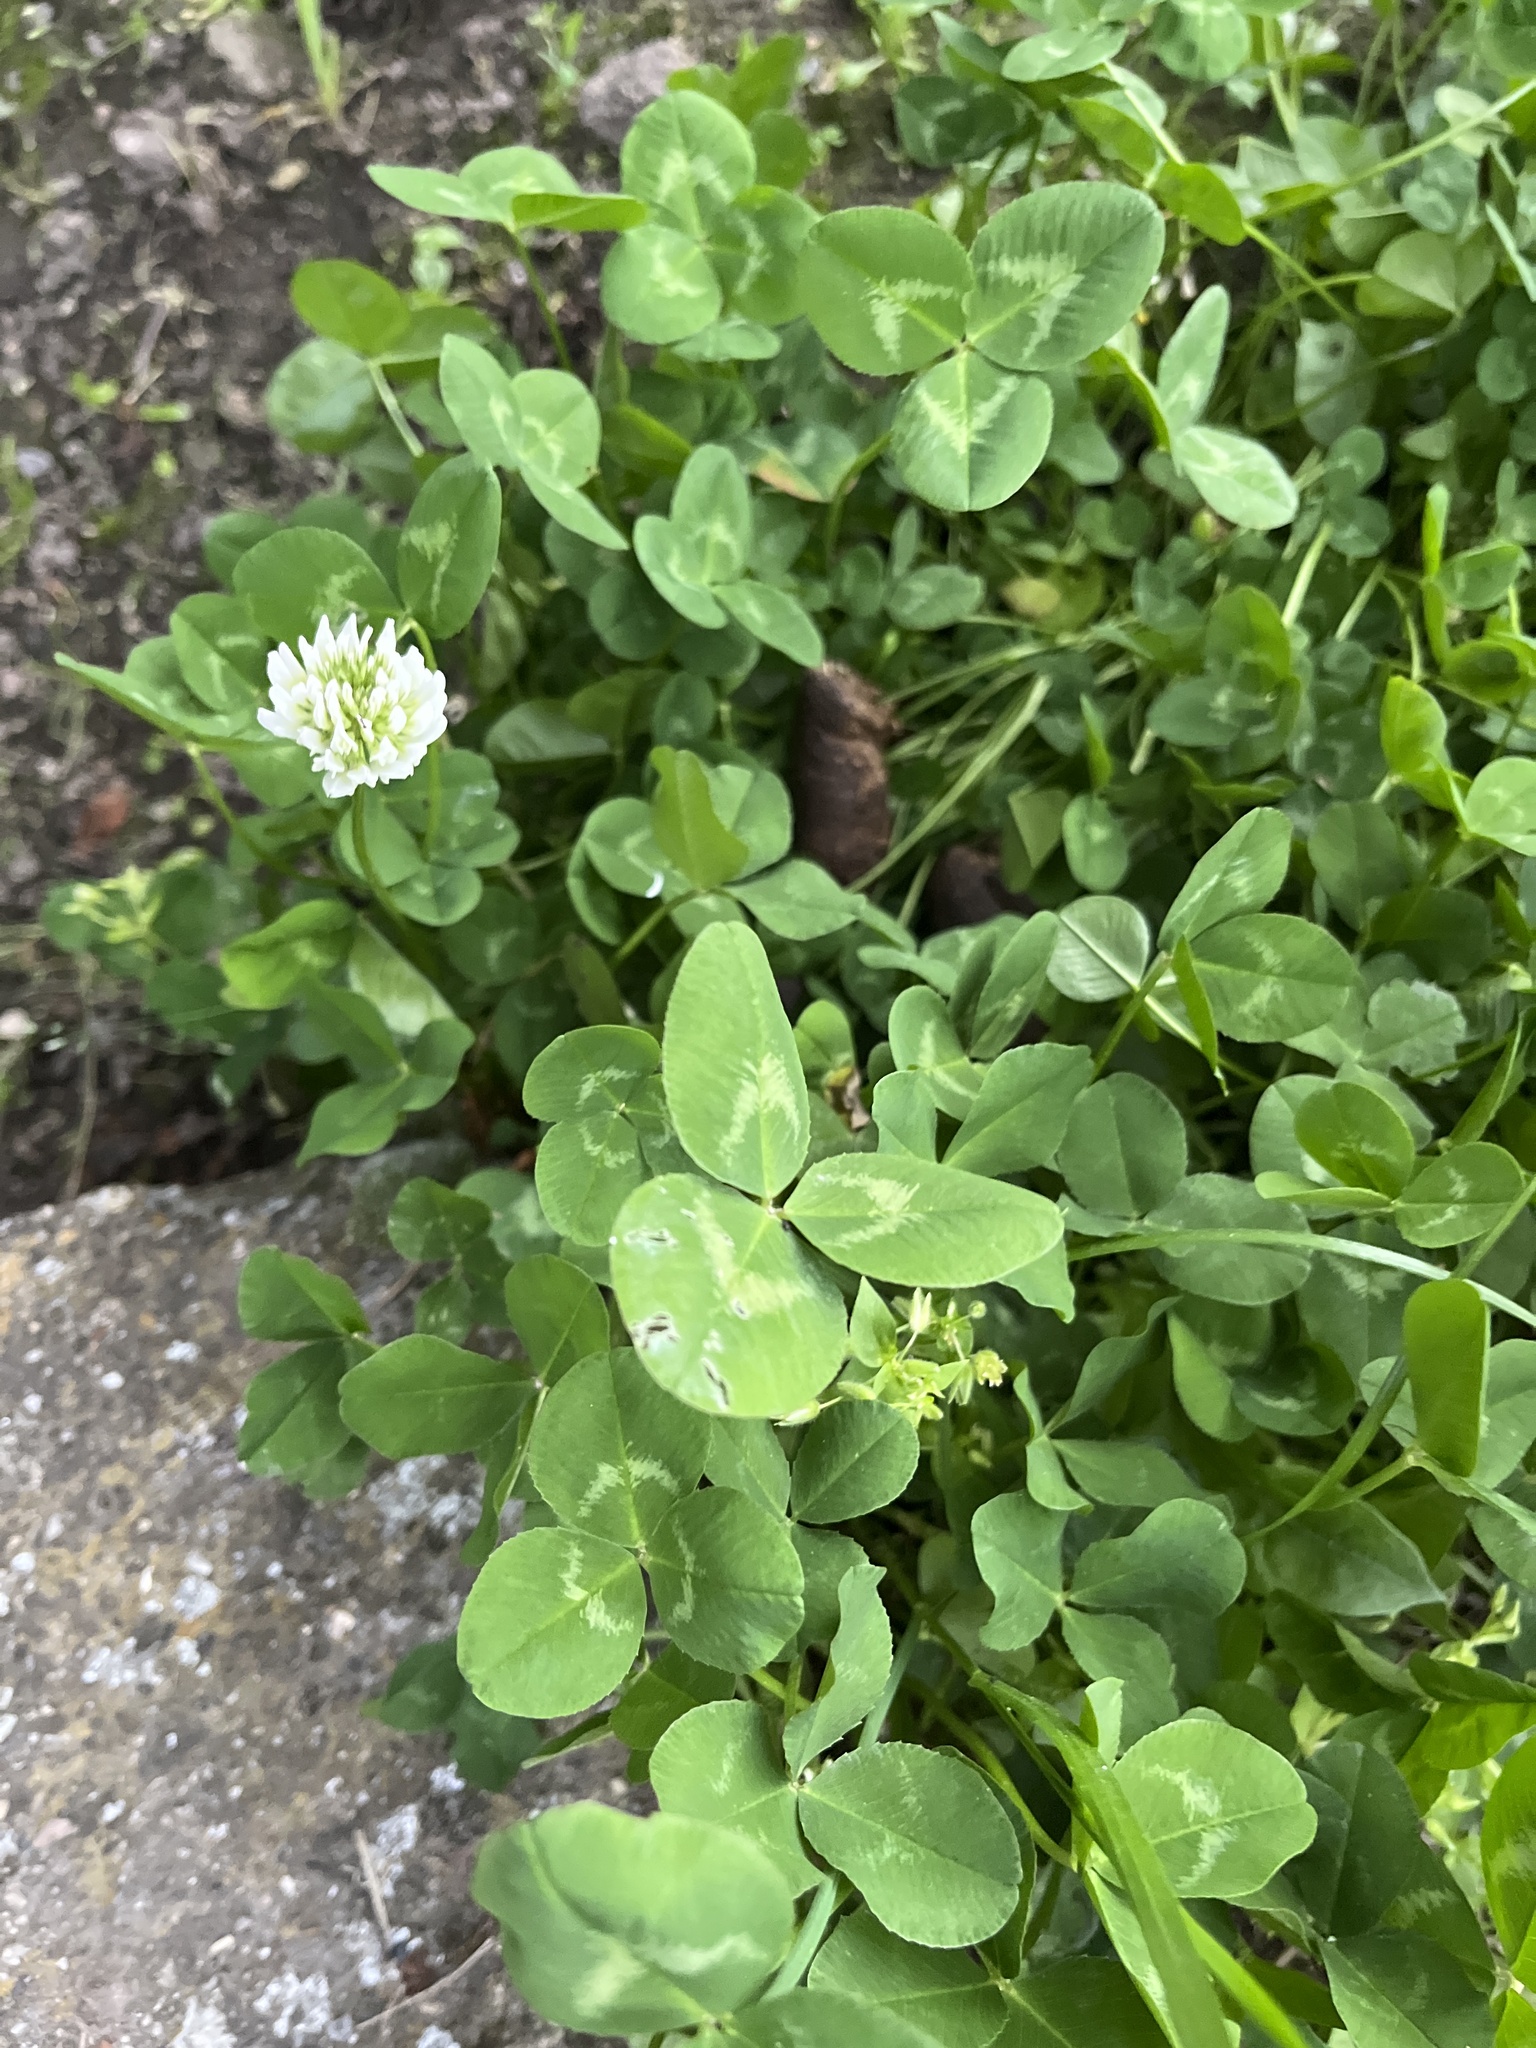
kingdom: Plantae
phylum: Tracheophyta
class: Magnoliopsida
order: Fabales
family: Fabaceae
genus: Trifolium
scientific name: Trifolium repens
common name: White clover
